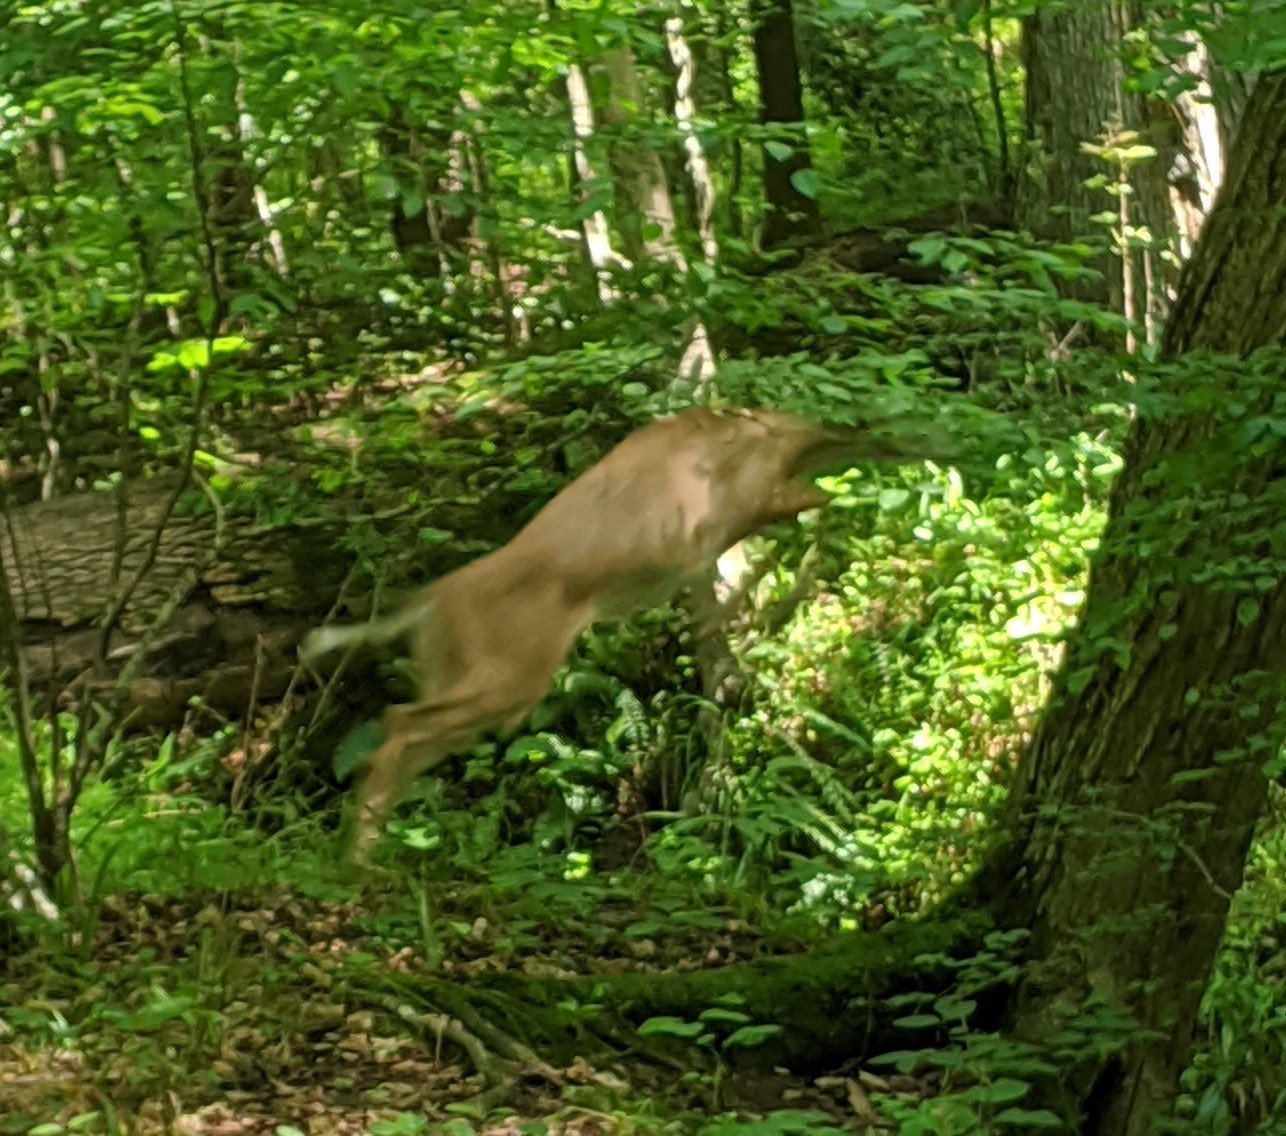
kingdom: Animalia
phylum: Chordata
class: Mammalia
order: Artiodactyla
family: Cervidae
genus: Odocoileus
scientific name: Odocoileus virginianus
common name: White-tailed deer
